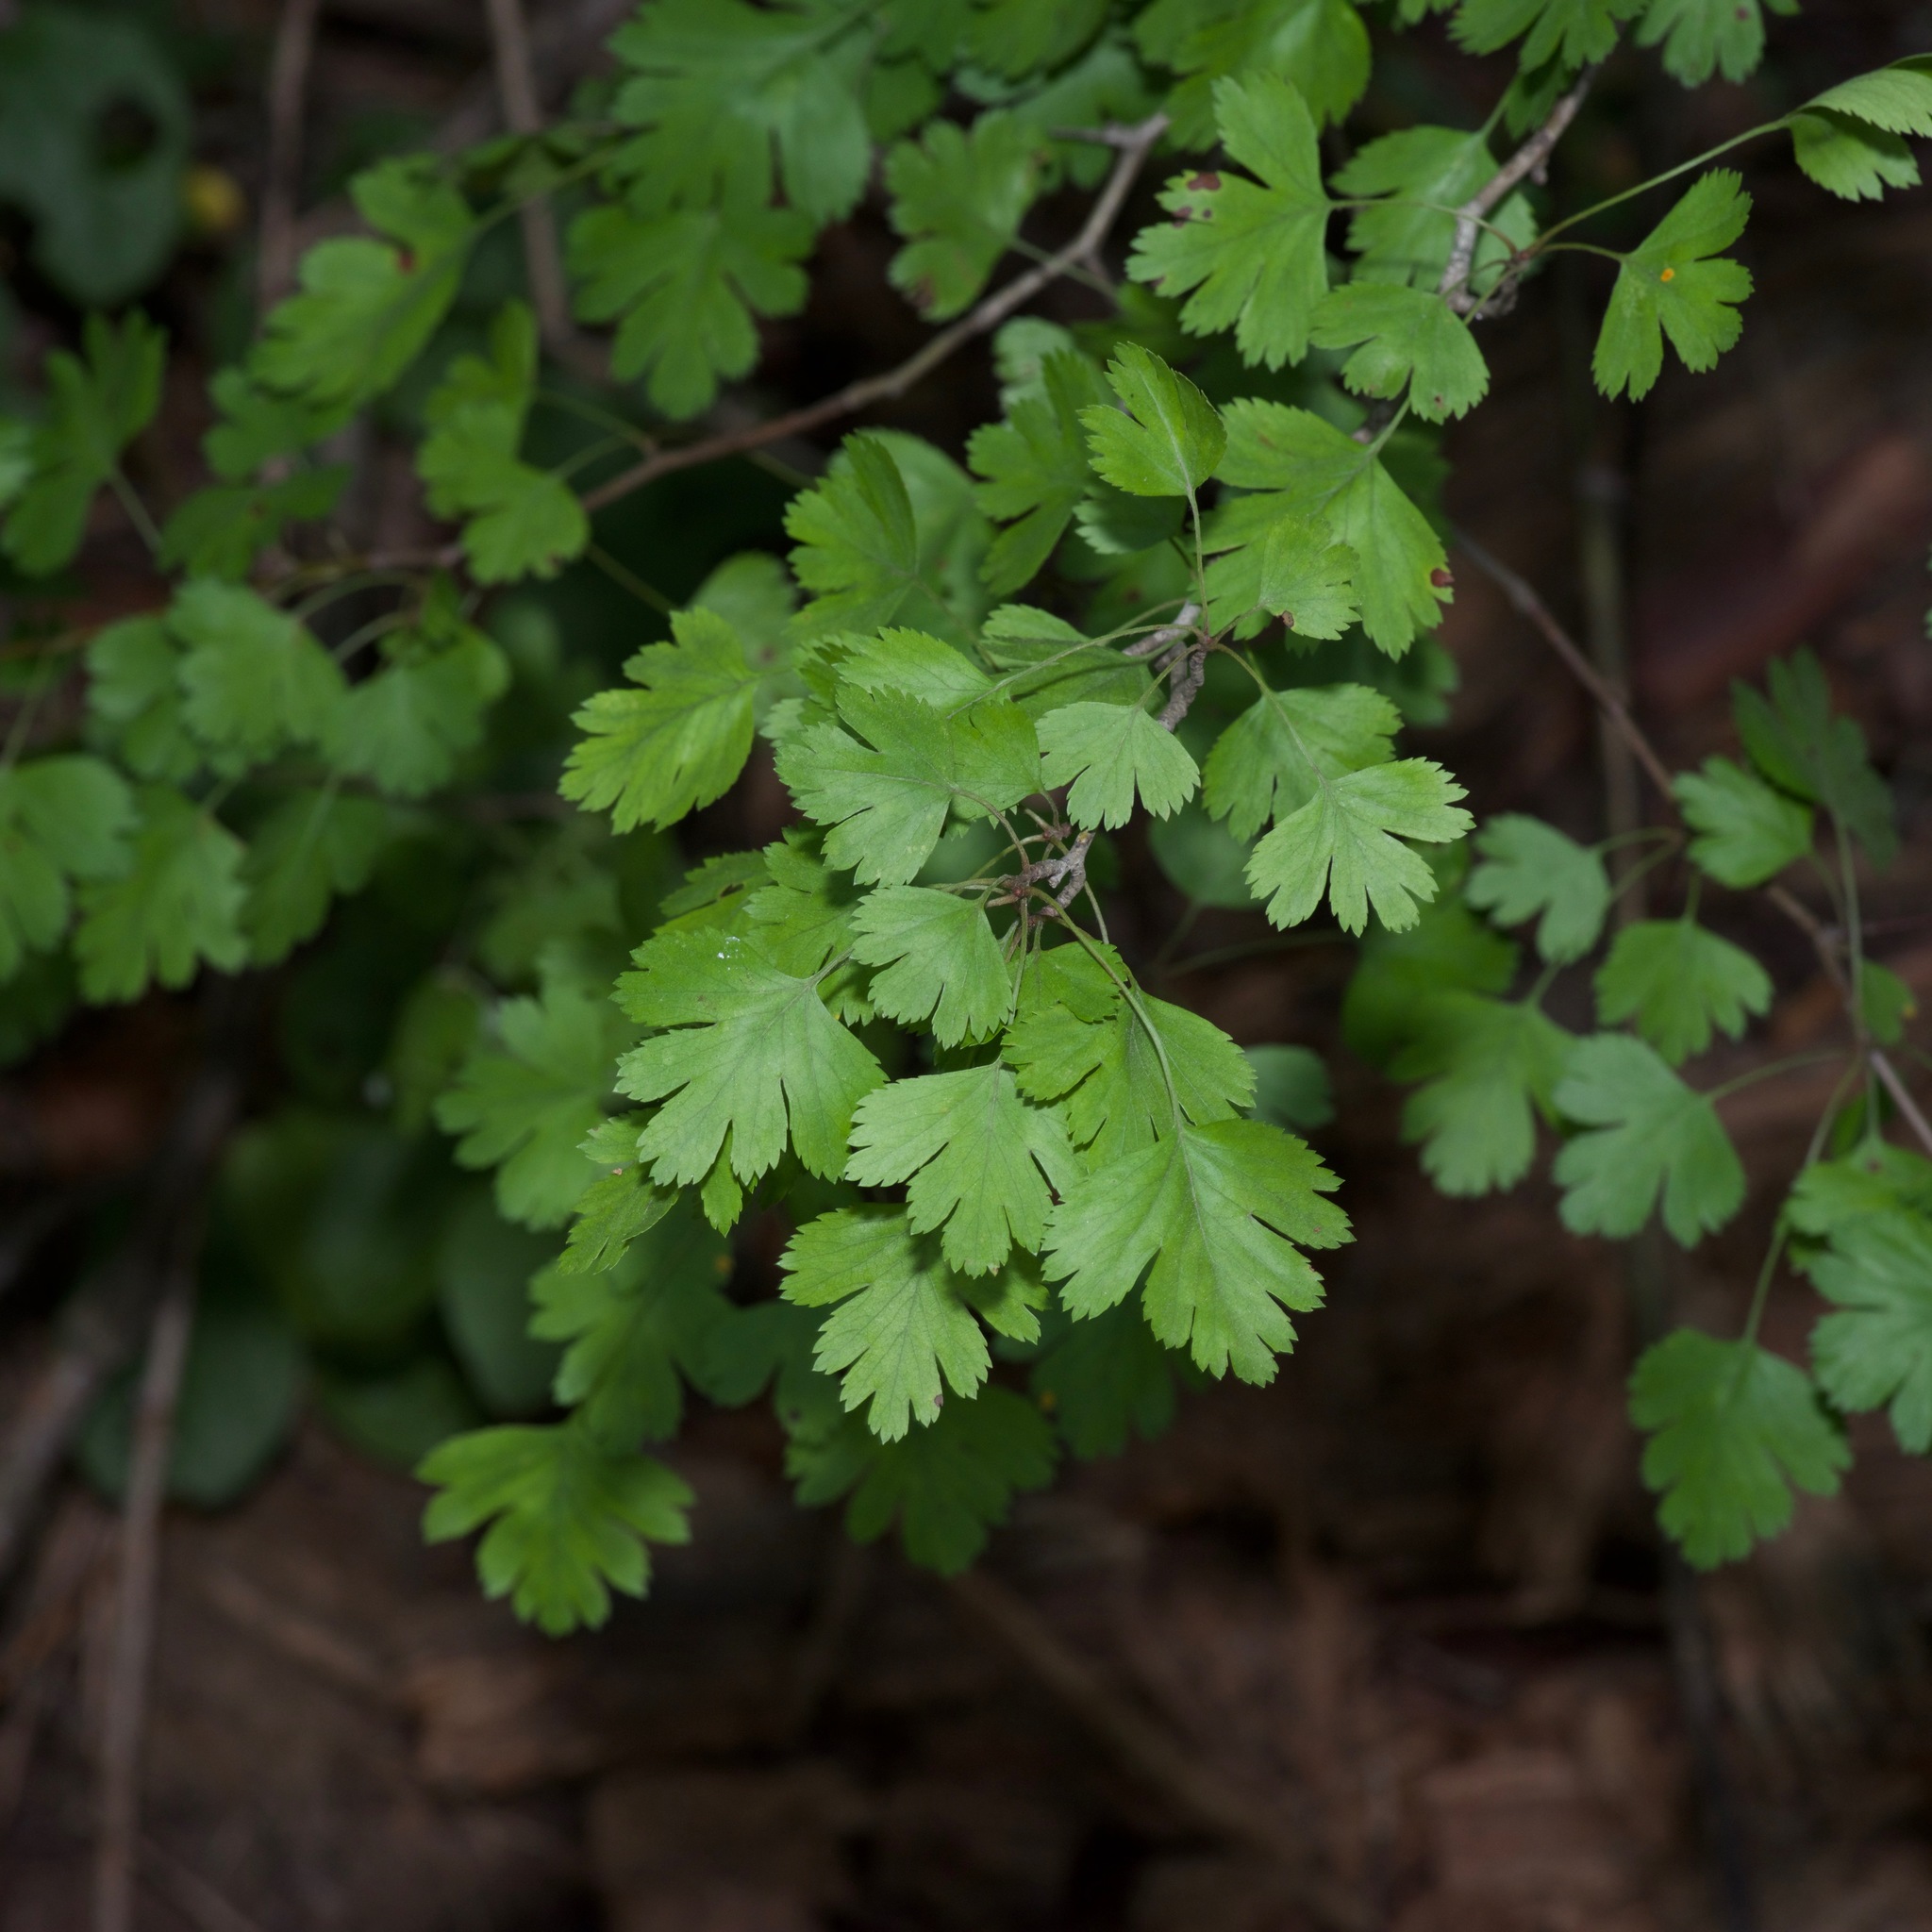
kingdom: Plantae
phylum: Tracheophyta
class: Magnoliopsida
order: Rosales
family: Rosaceae
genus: Crataegus
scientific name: Crataegus marshallii
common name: Parsley-hawthorn
